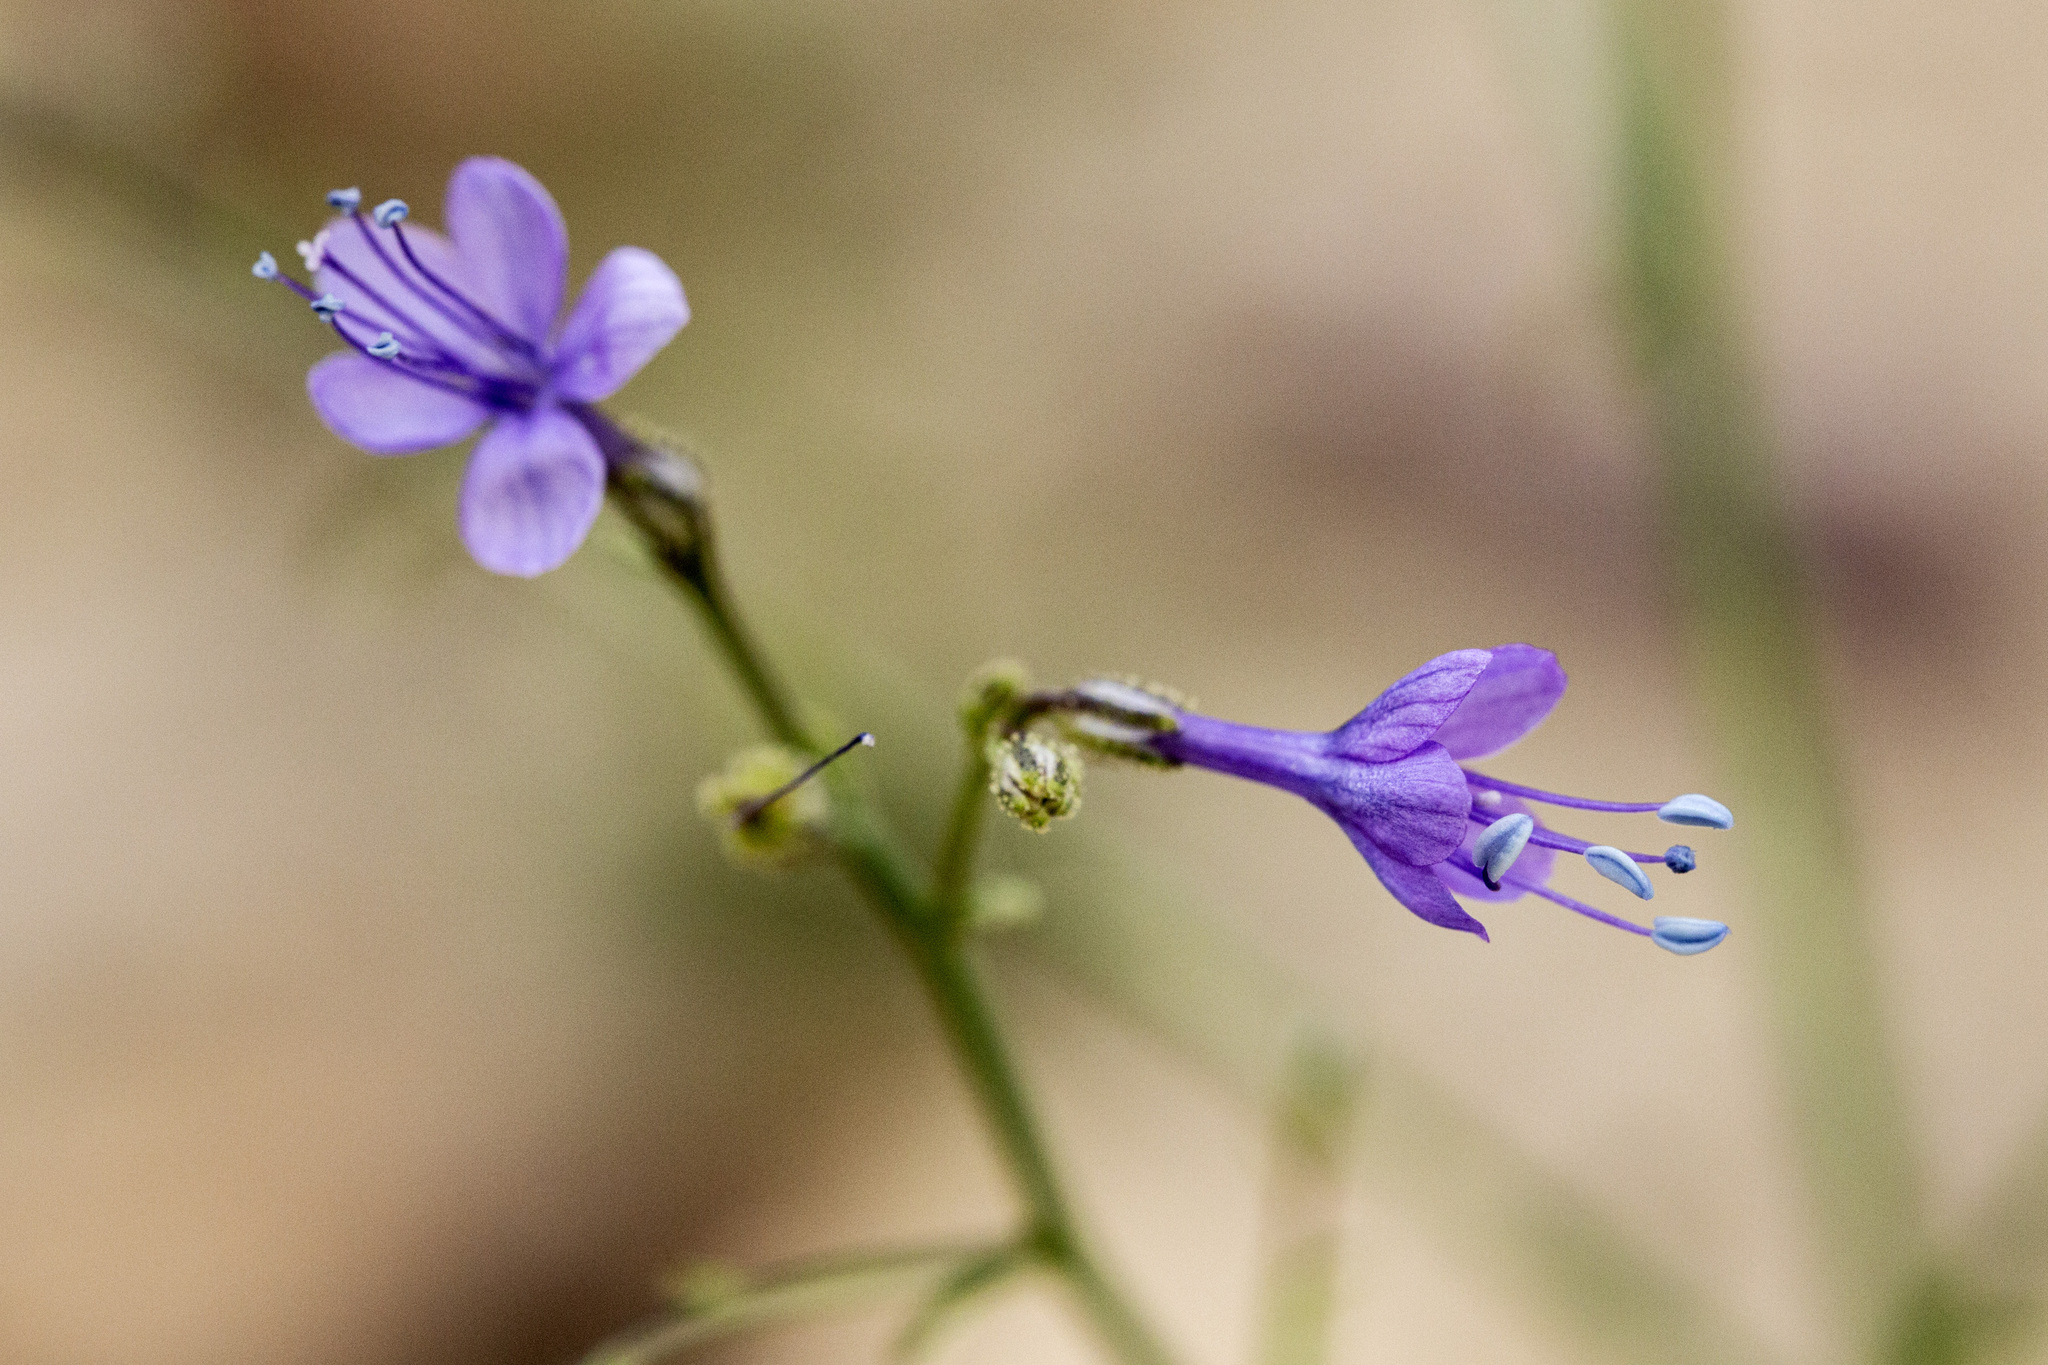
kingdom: Plantae
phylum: Tracheophyta
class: Magnoliopsida
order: Ericales
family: Polemoniaceae
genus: Aliciella
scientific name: Aliciella pinnatifida
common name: Sticky gilia
